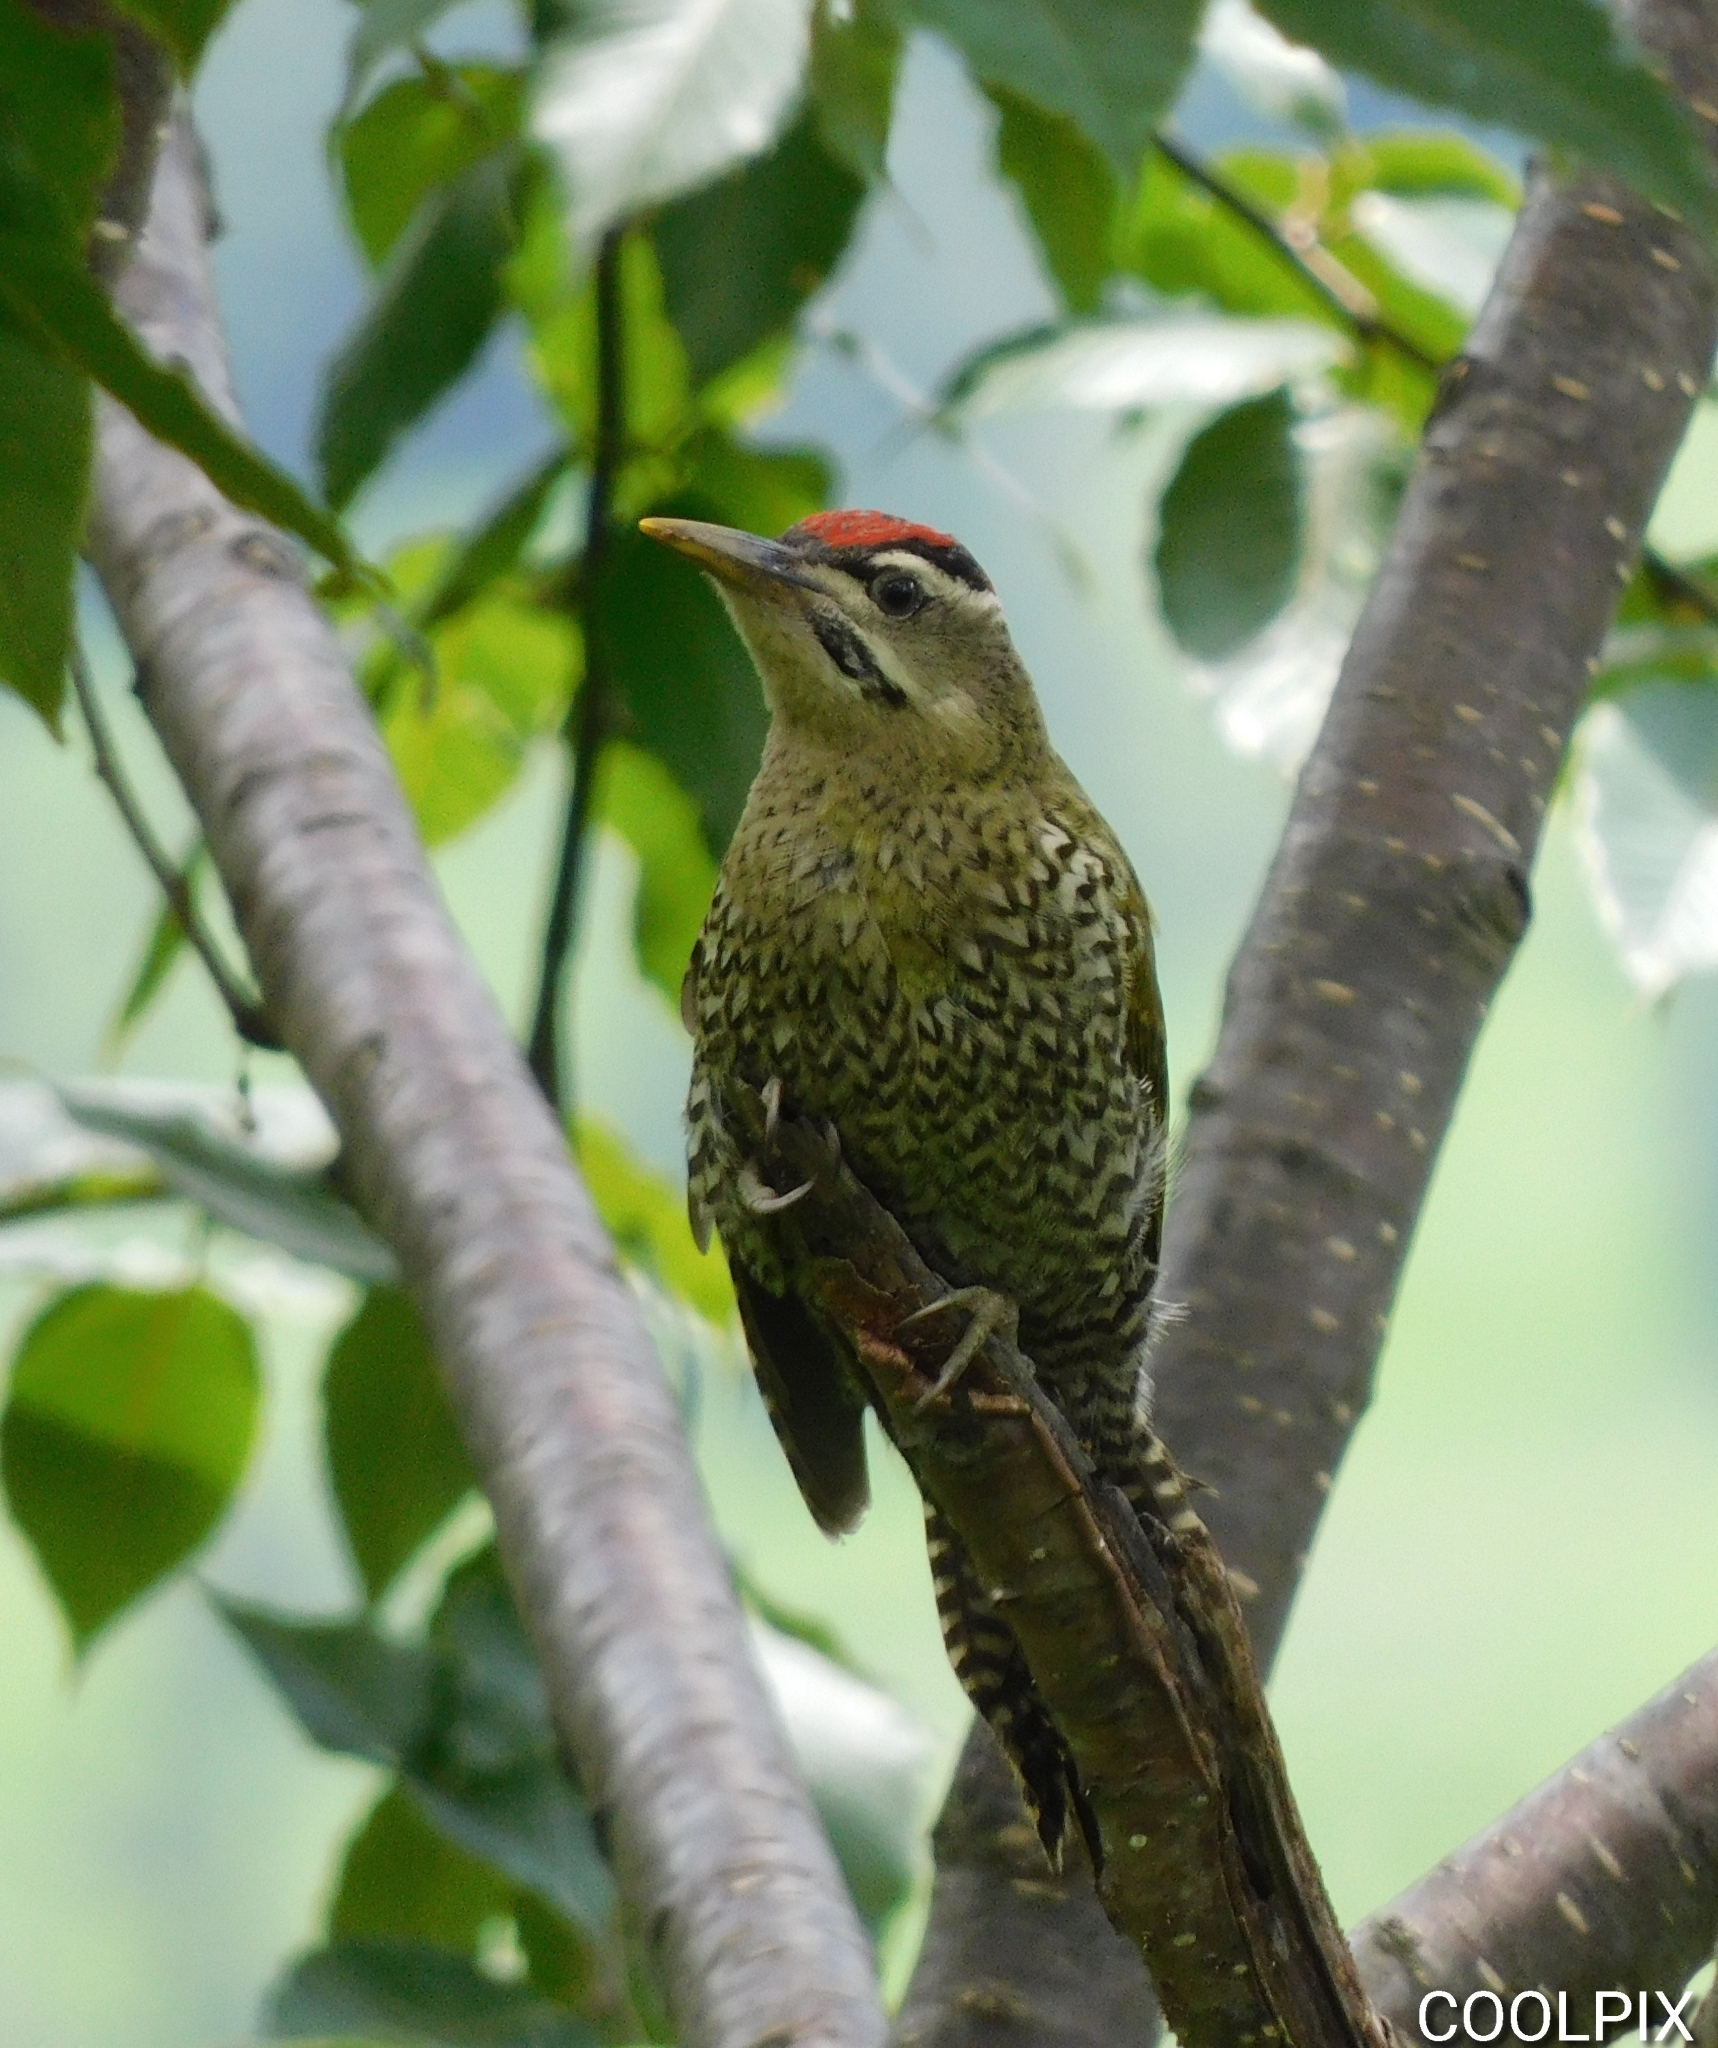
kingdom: Animalia
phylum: Chordata
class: Aves
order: Piciformes
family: Picidae
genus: Picus
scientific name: Picus squamatus
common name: Scaly-bellied woodpecker
